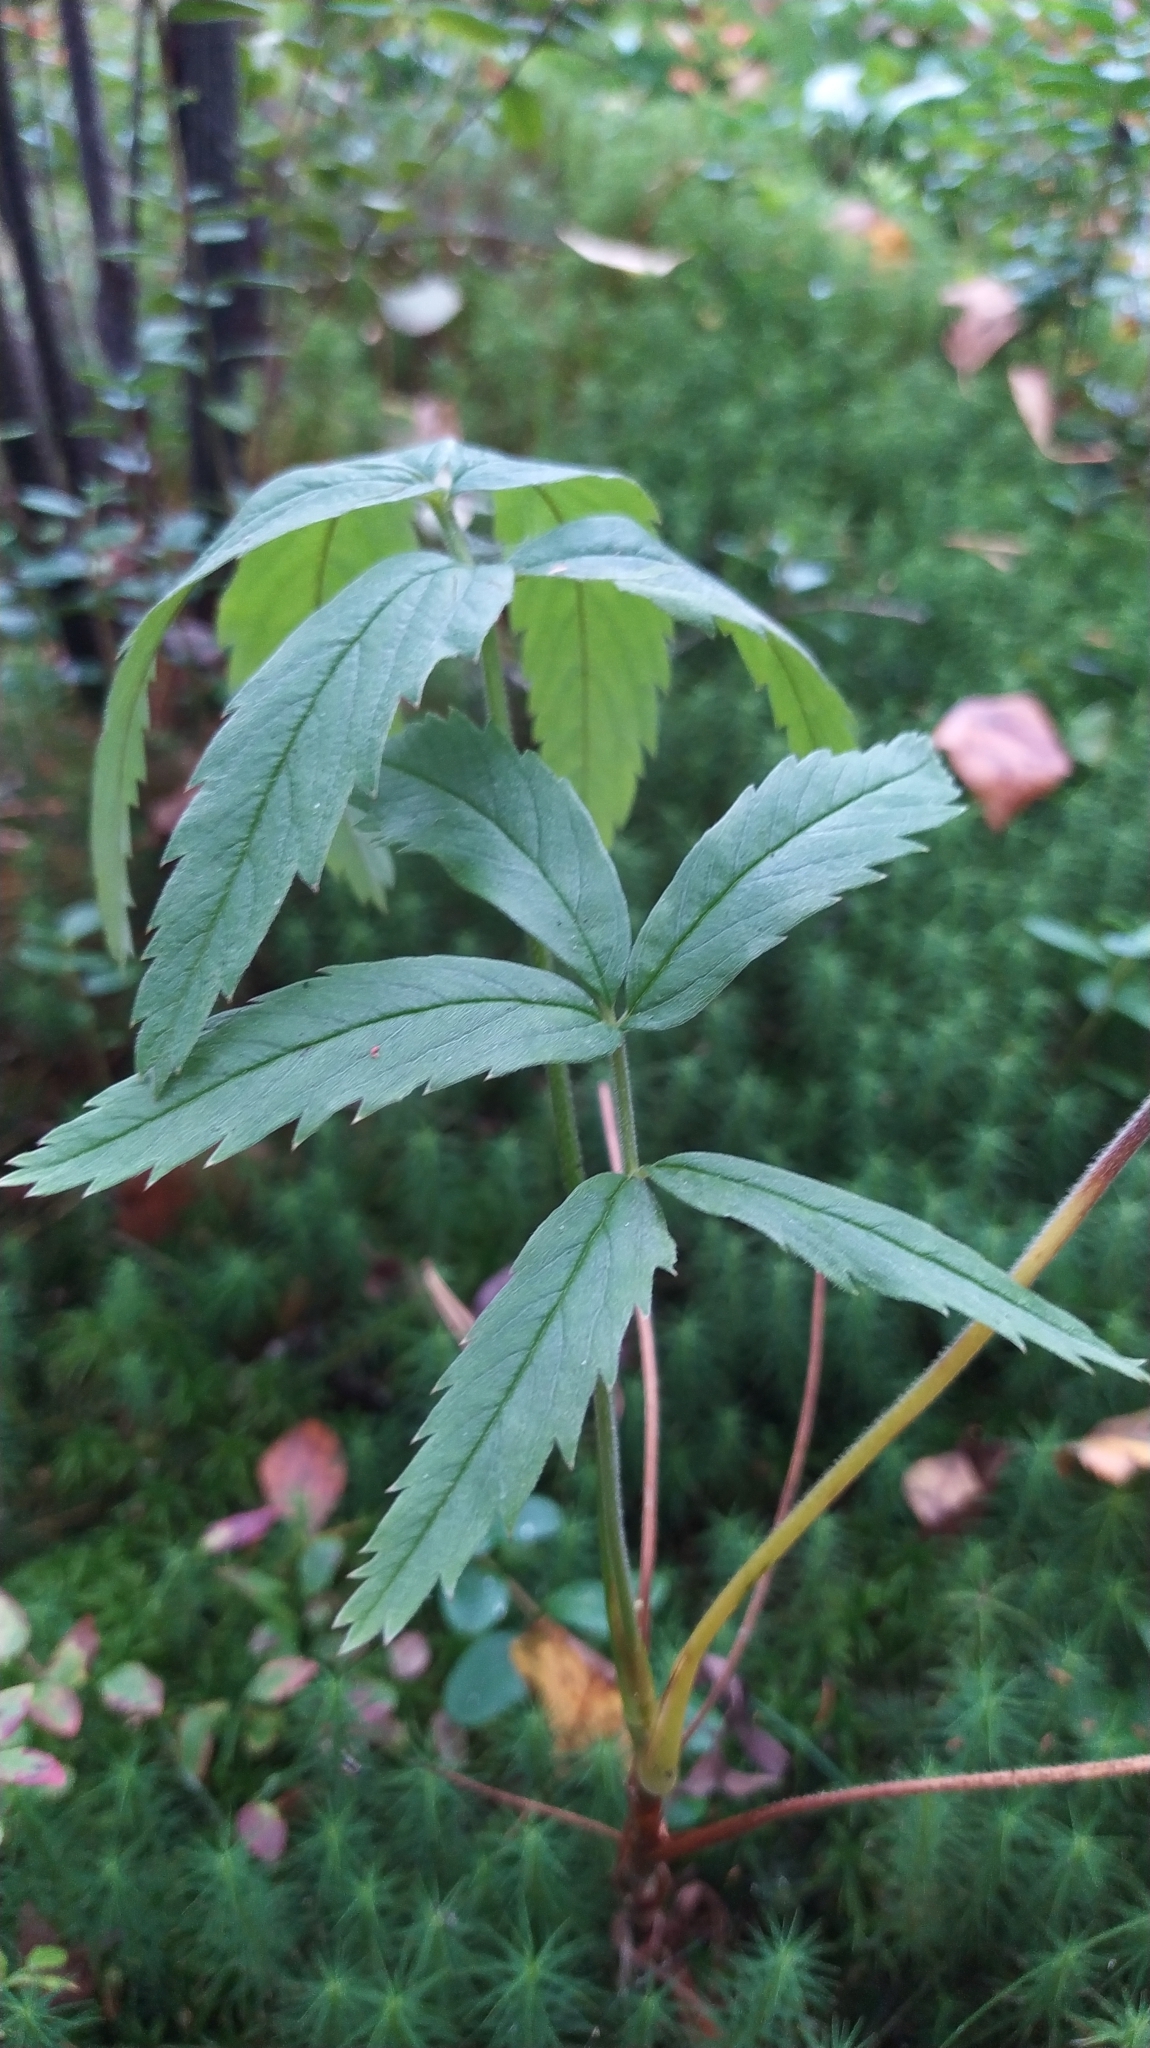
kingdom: Plantae
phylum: Tracheophyta
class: Magnoliopsida
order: Rosales
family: Rosaceae
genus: Comarum
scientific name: Comarum palustre
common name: Marsh cinquefoil
